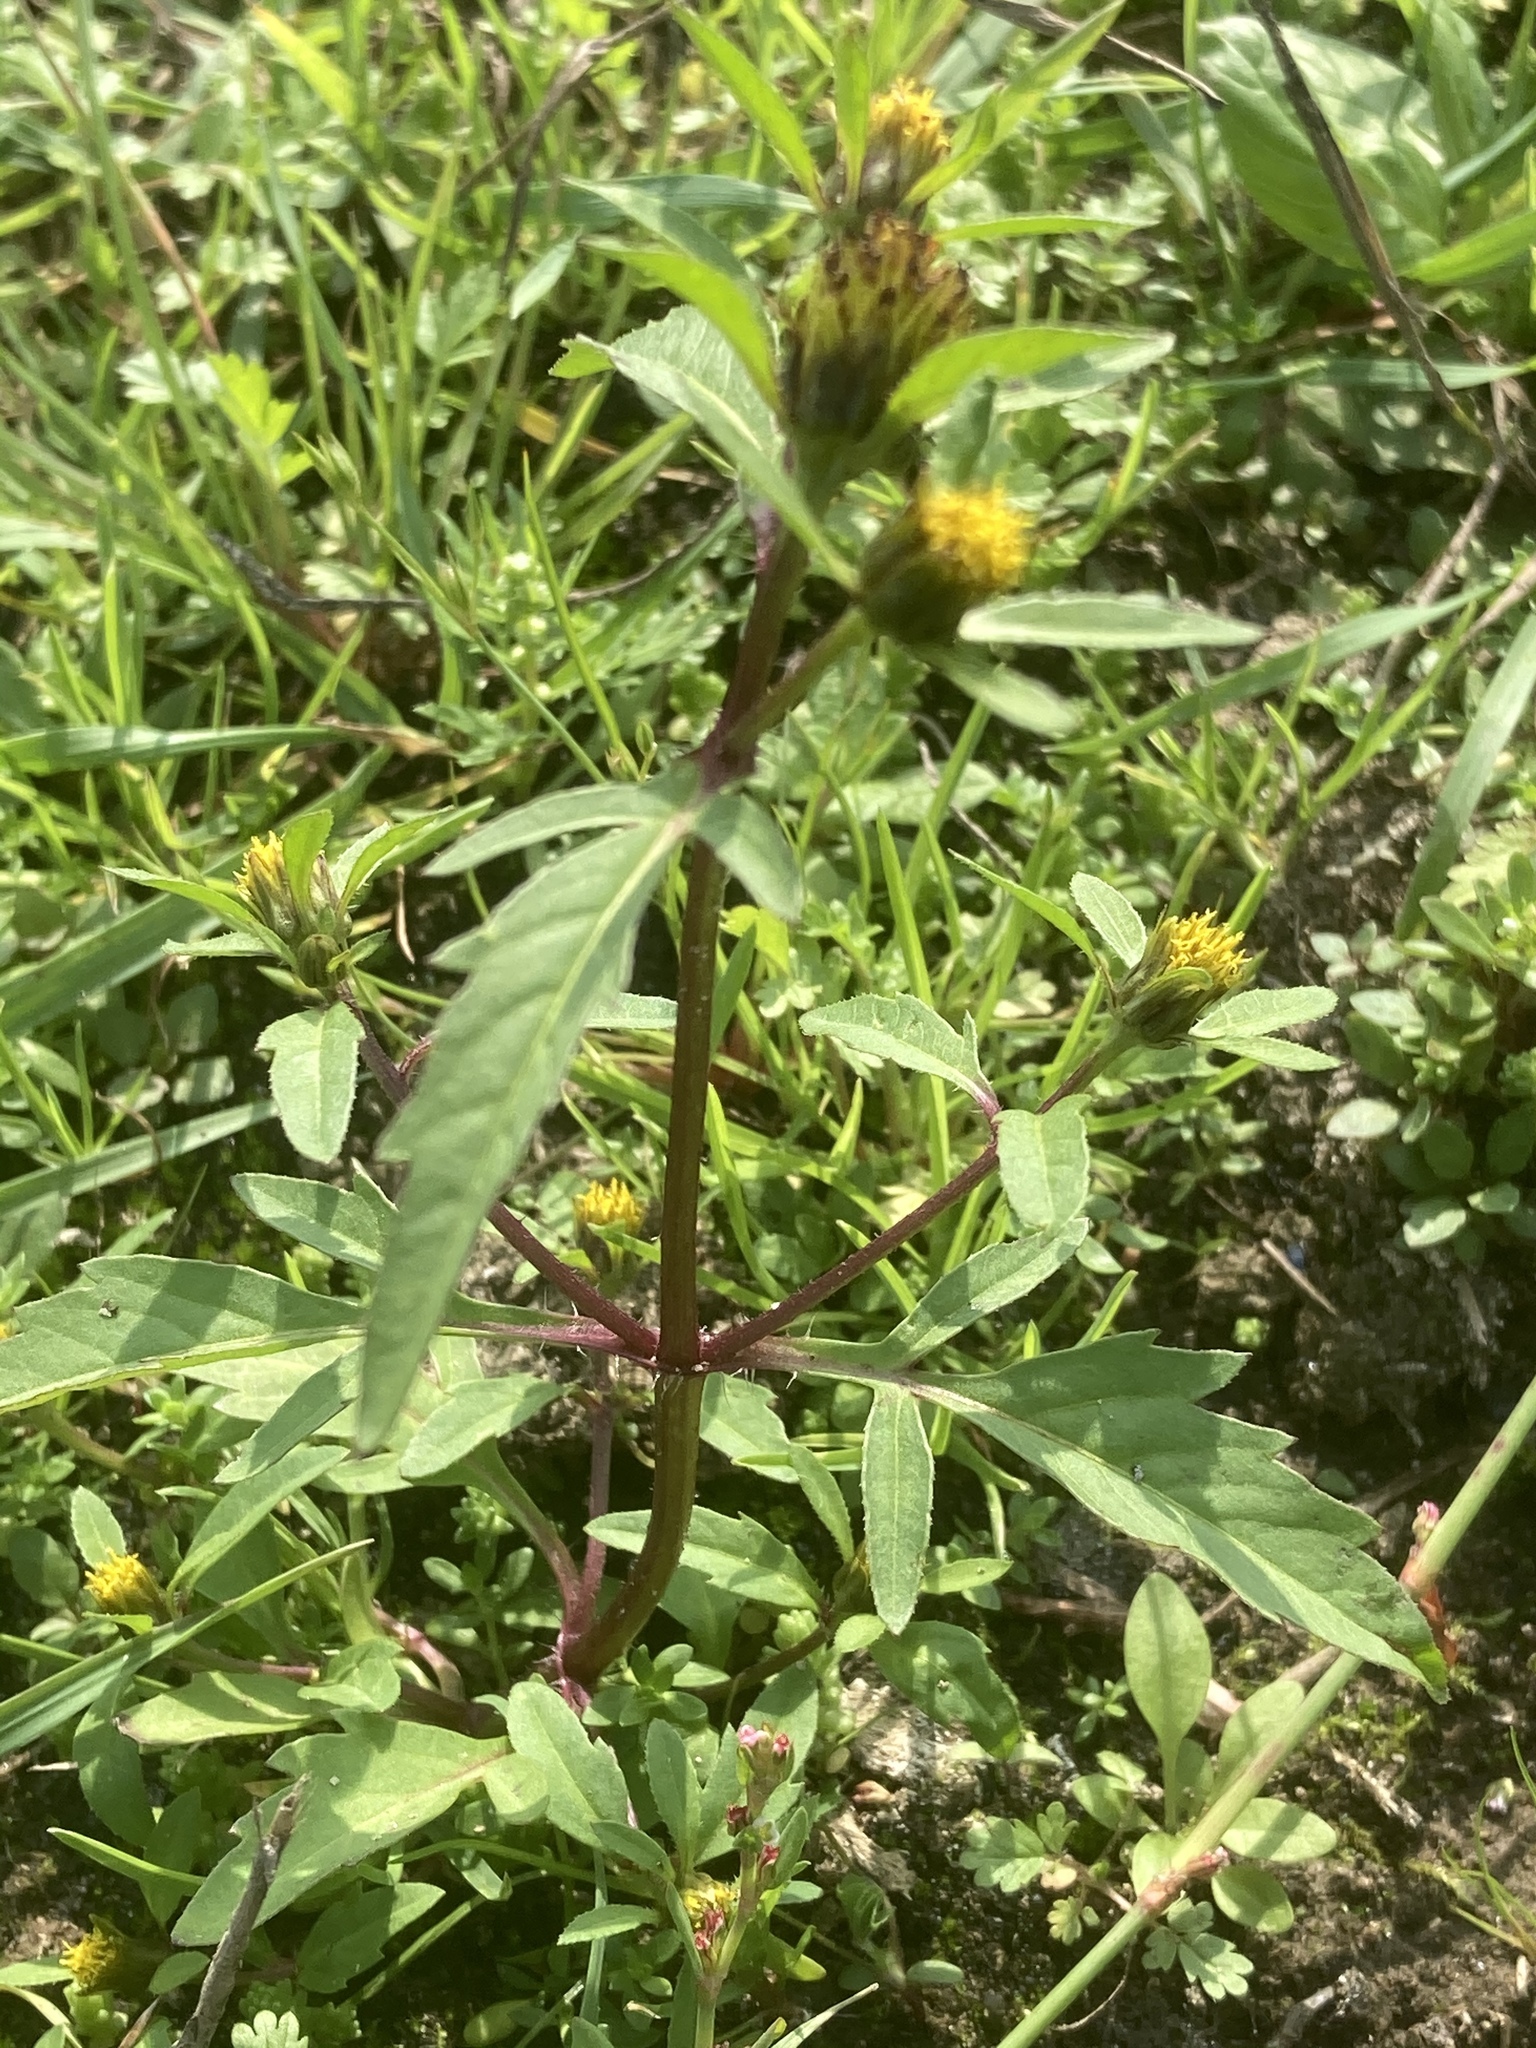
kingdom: Plantae
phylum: Tracheophyta
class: Magnoliopsida
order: Asterales
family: Asteraceae
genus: Bidens
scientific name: Bidens tripartita
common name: Trifid bur-marigold
